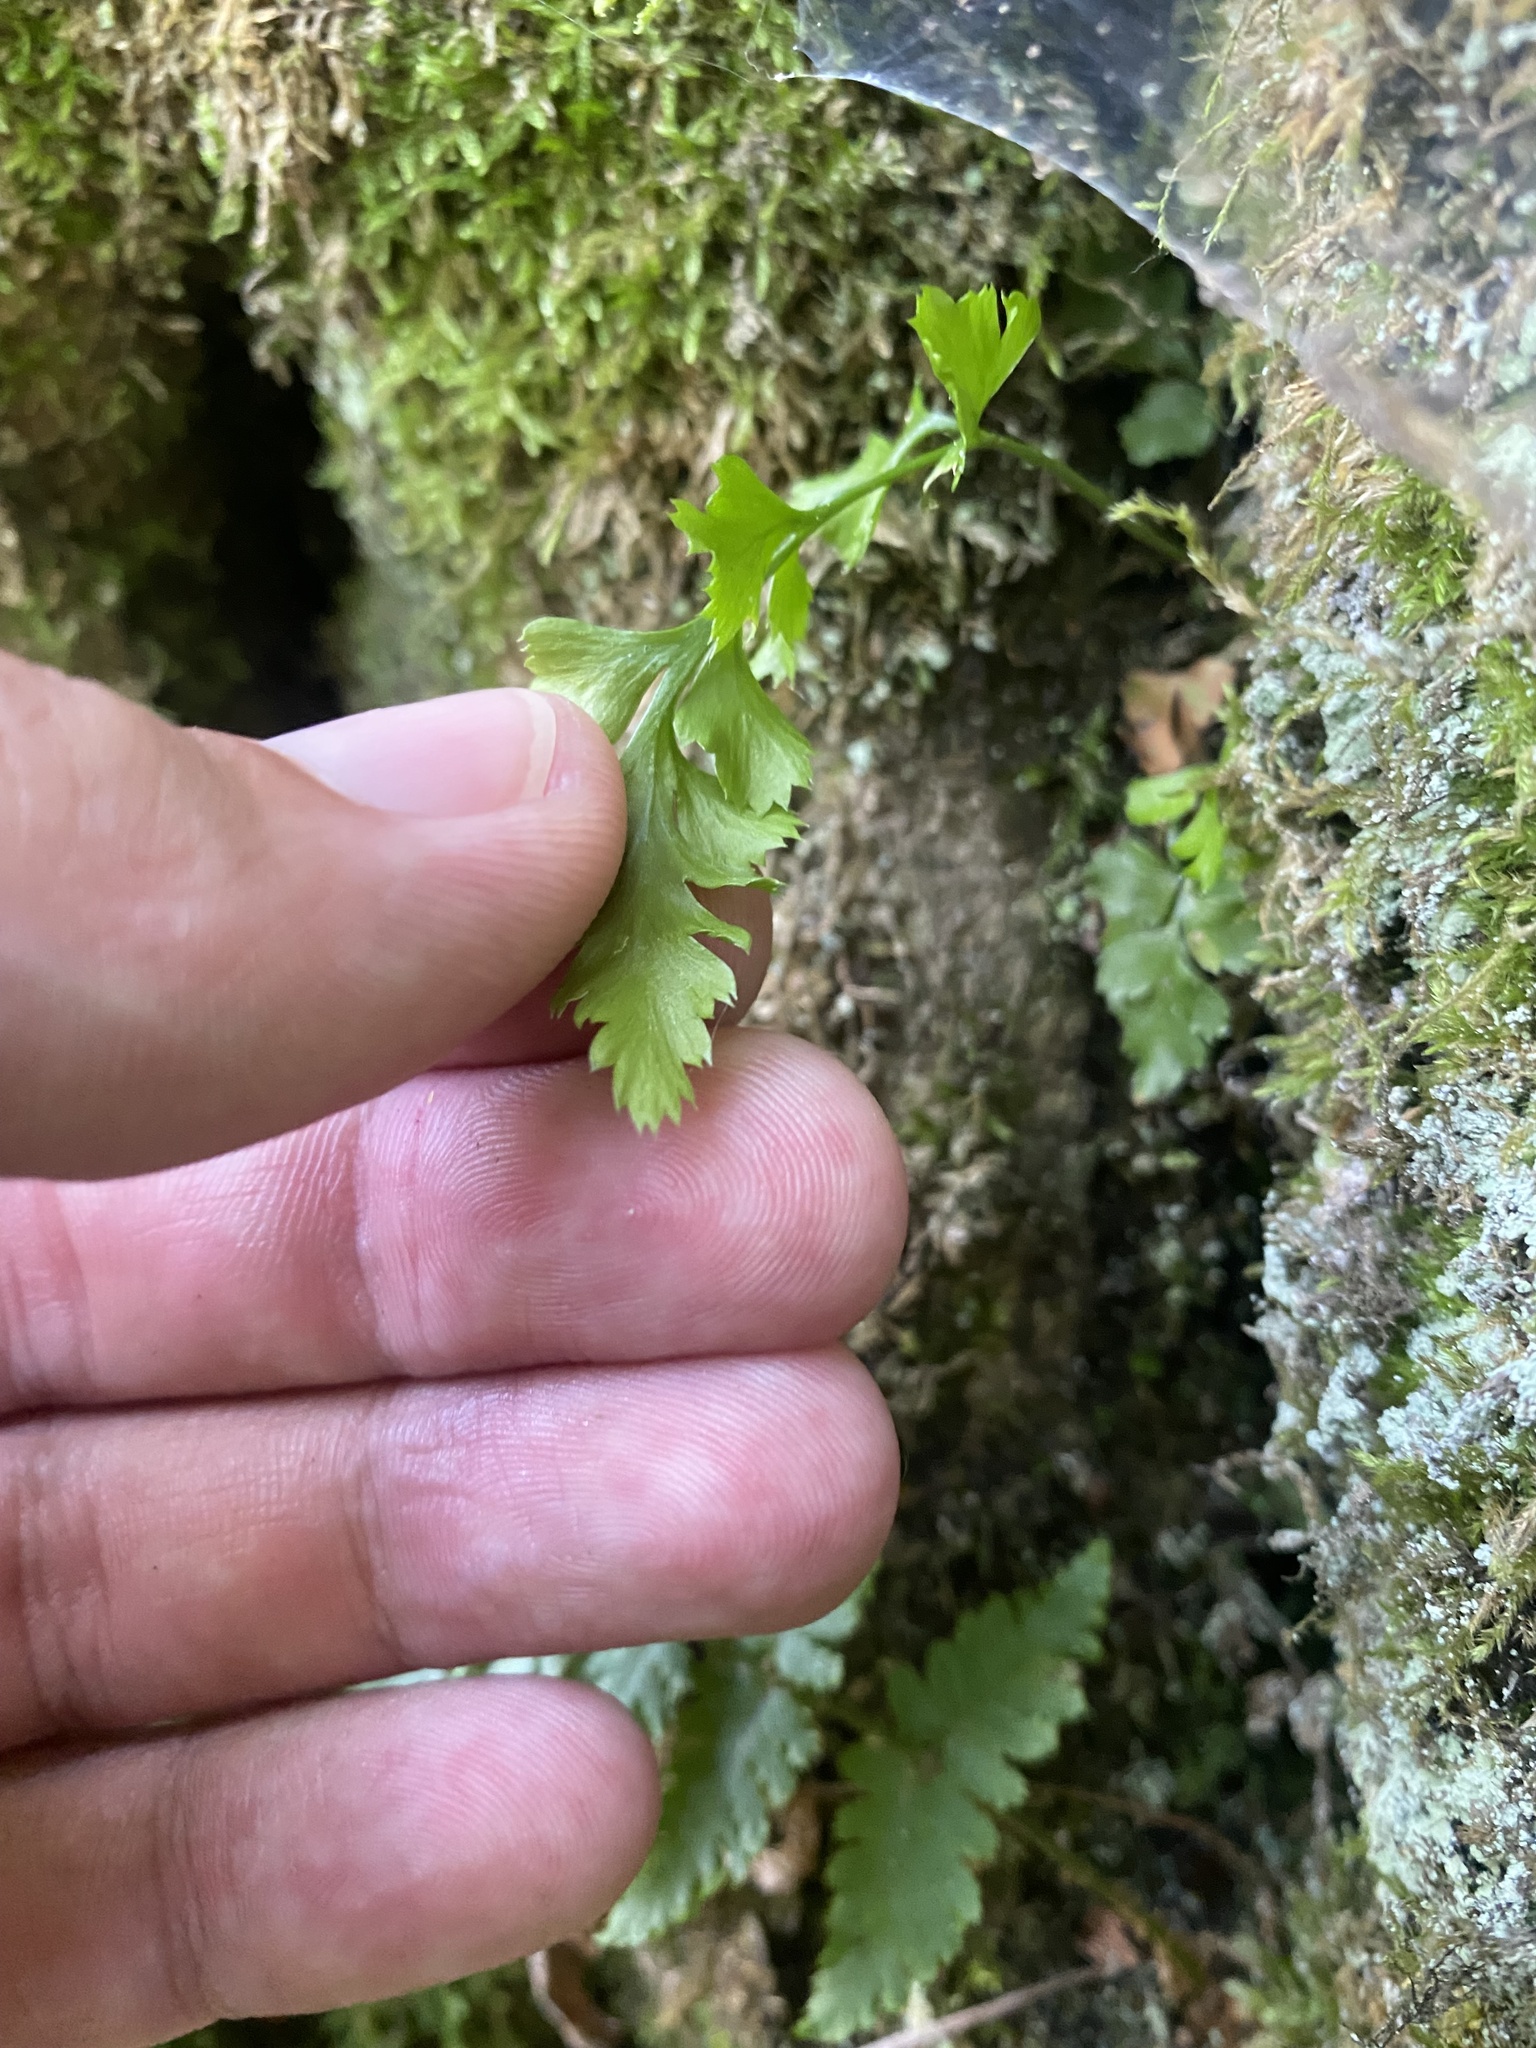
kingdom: Plantae
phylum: Tracheophyta
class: Polypodiopsida
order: Polypodiales
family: Aspleniaceae
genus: Asplenium
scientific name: Asplenium ruta-muraria
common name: Wall-rue
